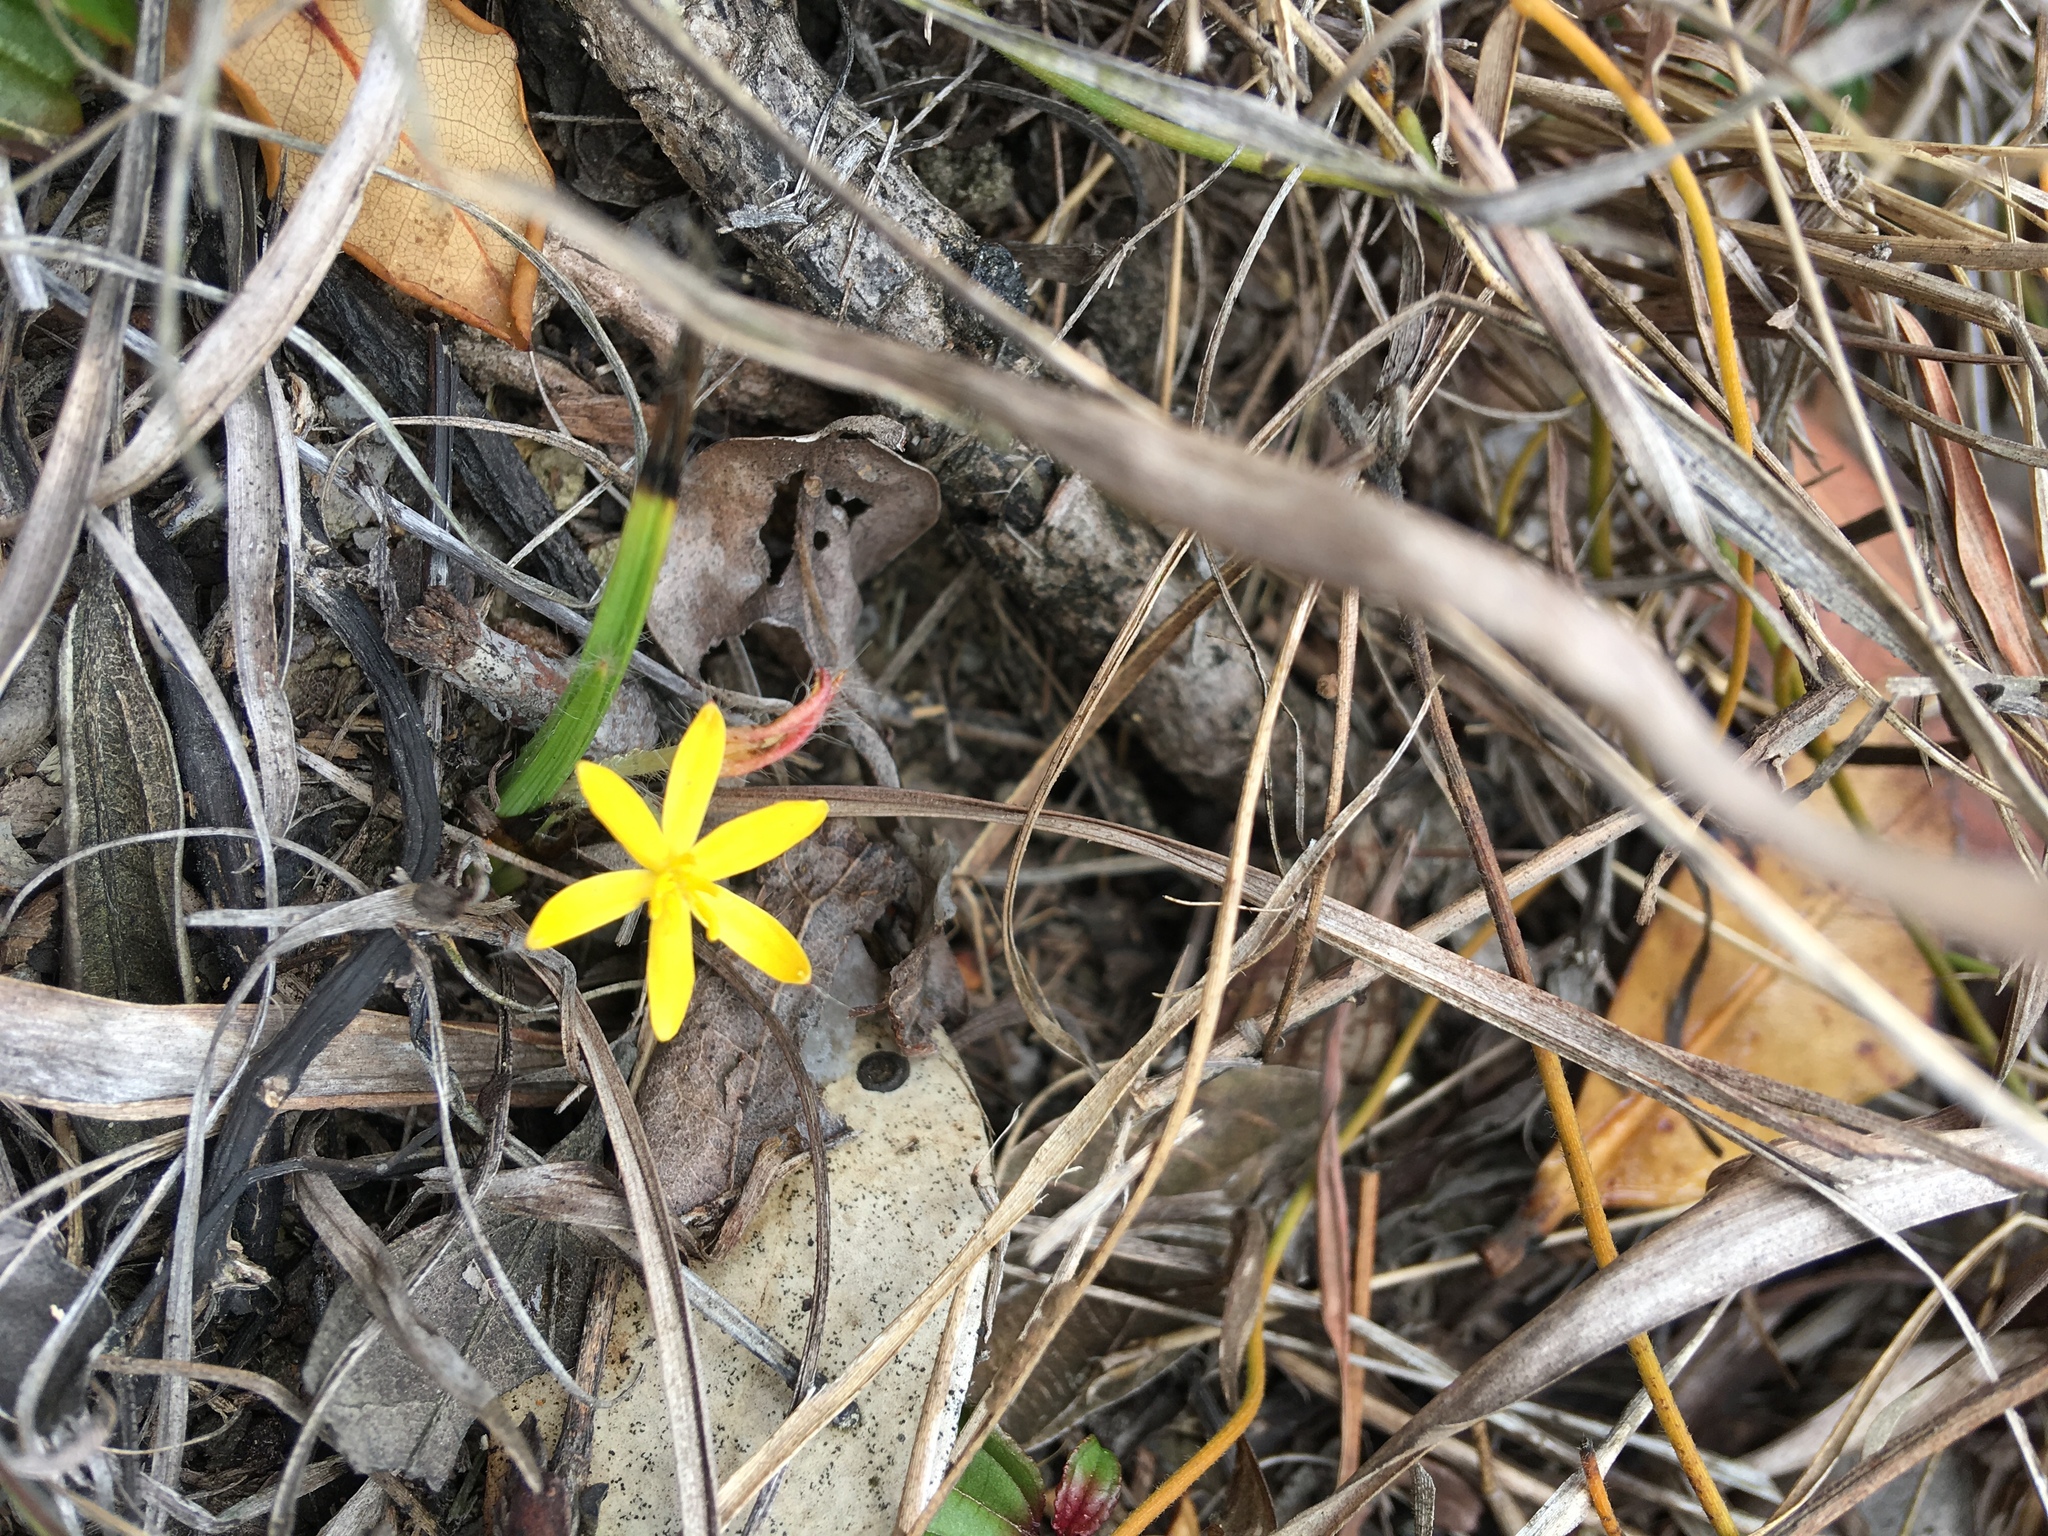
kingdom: Plantae
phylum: Tracheophyta
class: Liliopsida
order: Asparagales
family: Hypoxidaceae
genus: Curculigo
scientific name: Curculigo orchioides
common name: Golden eye-grass
